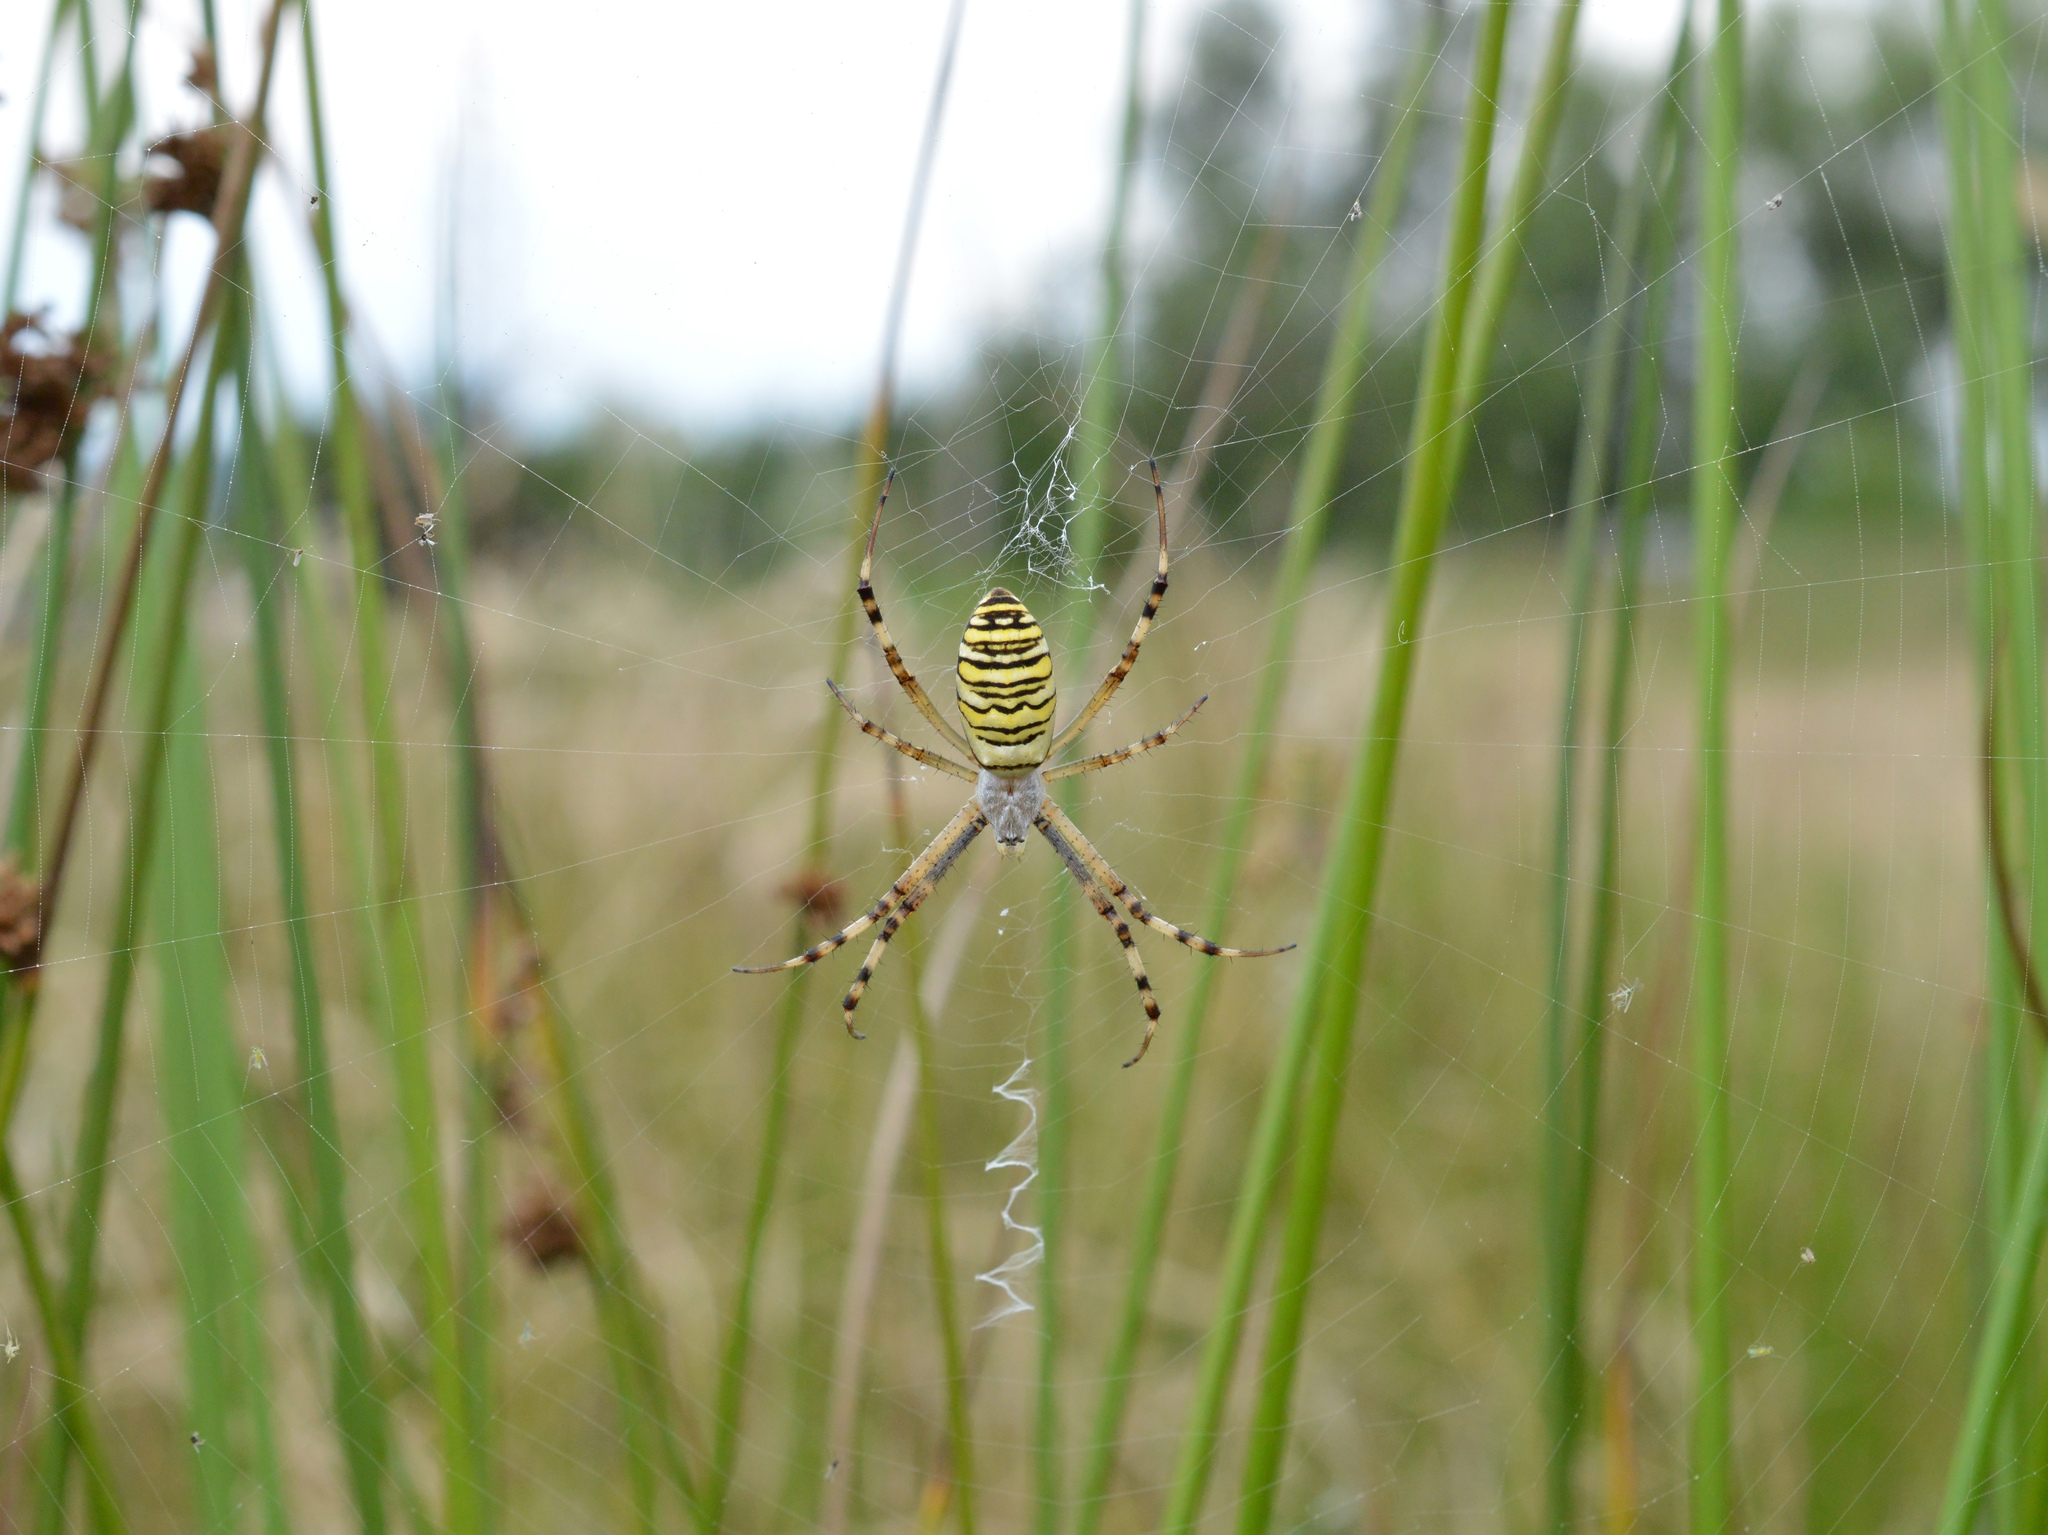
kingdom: Animalia
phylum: Arthropoda
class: Arachnida
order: Araneae
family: Araneidae
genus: Argiope
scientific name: Argiope bruennichi
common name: Wasp spider
